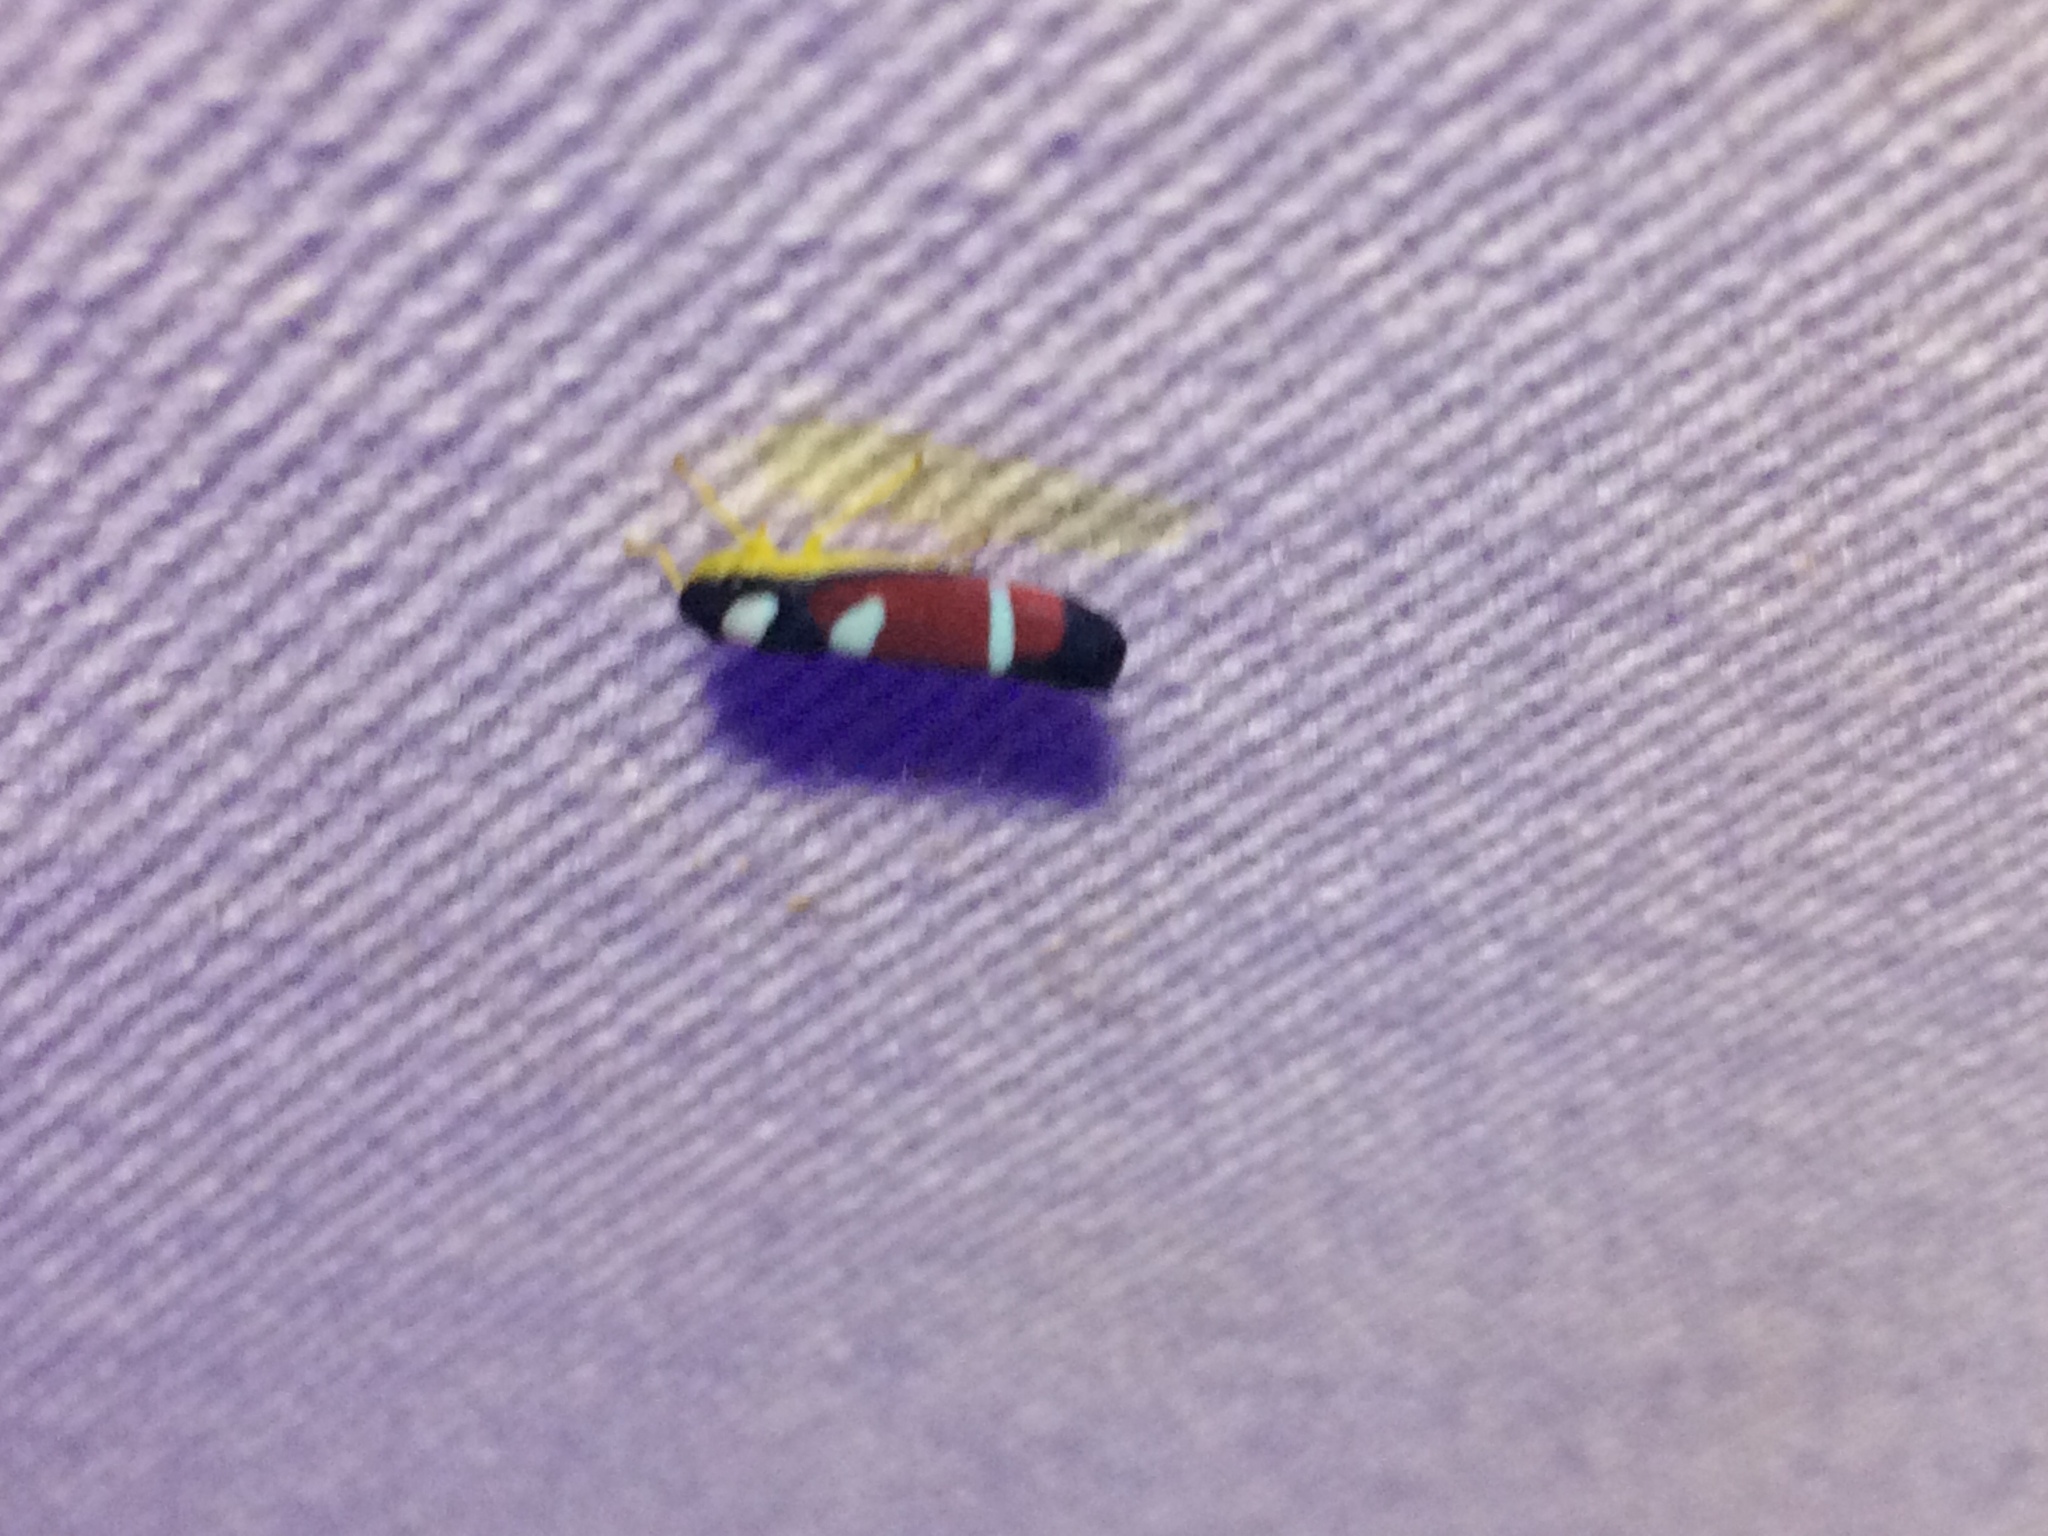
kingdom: Animalia
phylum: Arthropoda
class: Insecta
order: Hemiptera
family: Cicadellidae
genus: Erythrogonia
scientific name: Erythrogonia phoenicea
